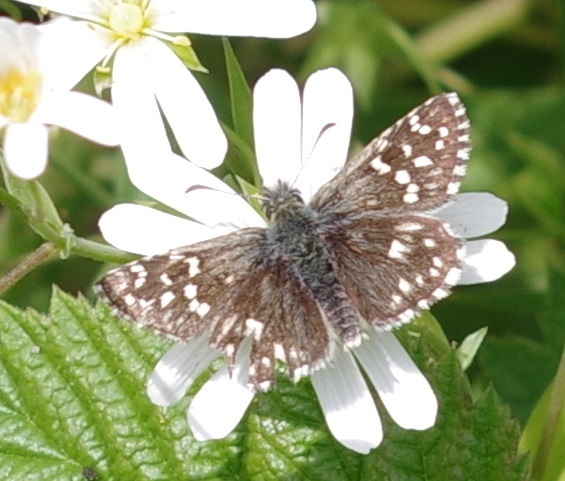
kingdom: Animalia
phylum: Arthropoda
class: Insecta
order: Lepidoptera
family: Hesperiidae
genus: Pyrgus
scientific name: Pyrgus malvae
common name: Grizzled skipper
